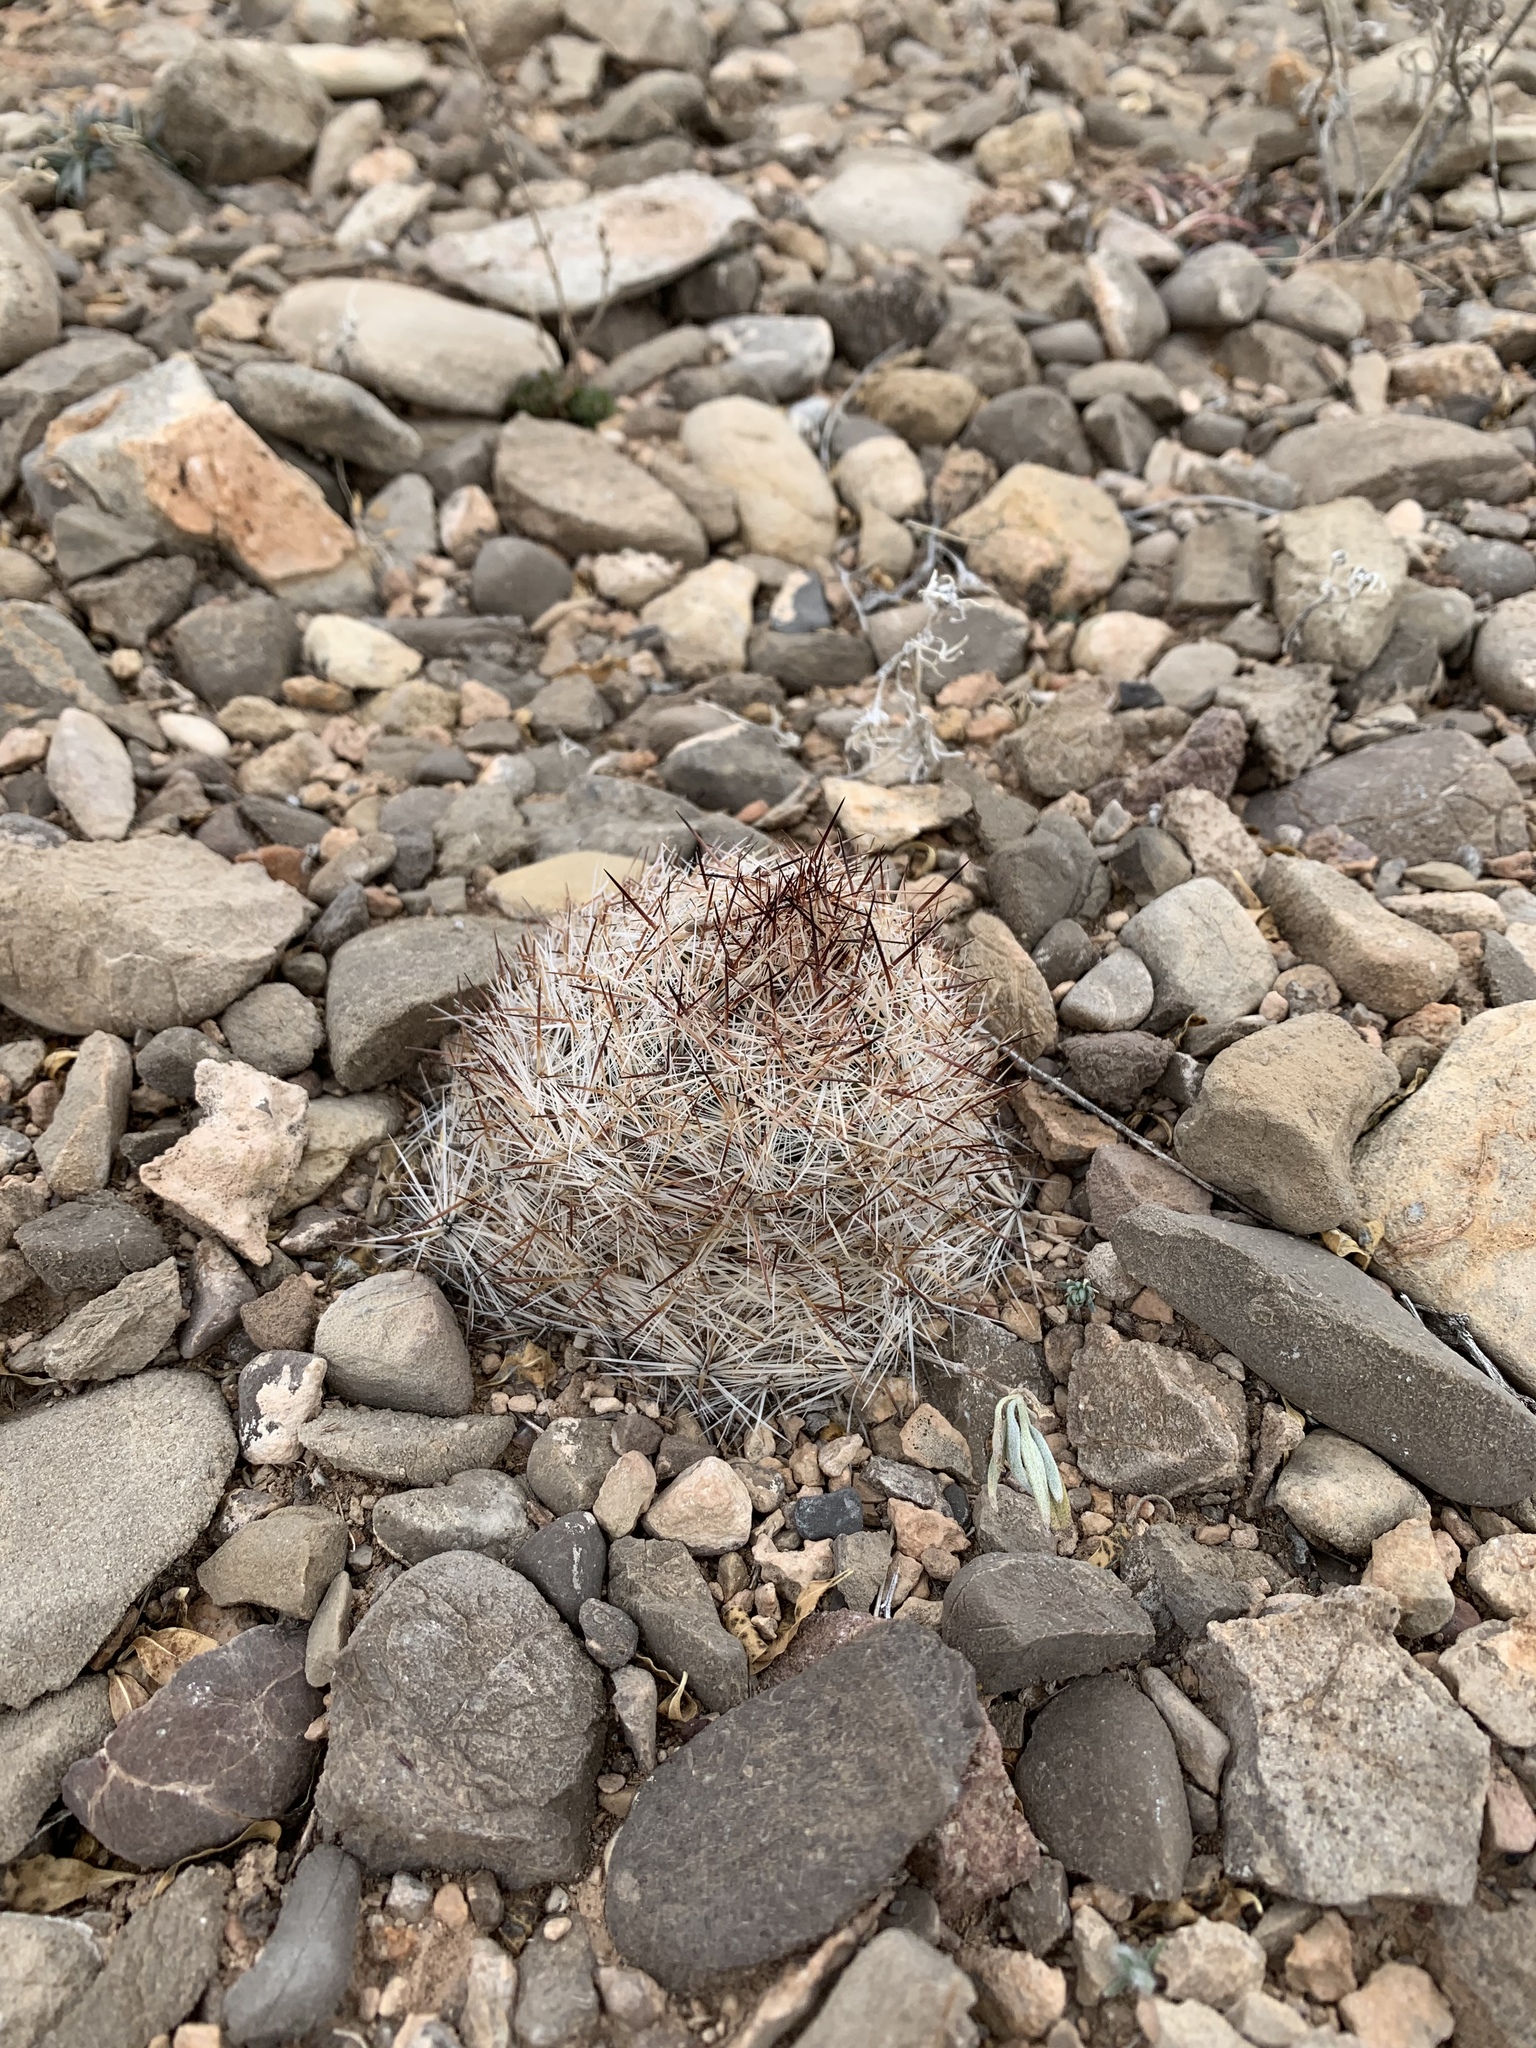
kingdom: Plantae
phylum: Tracheophyta
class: Magnoliopsida
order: Caryophyllales
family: Cactaceae
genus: Pelecyphora
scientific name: Pelecyphora vivipara
